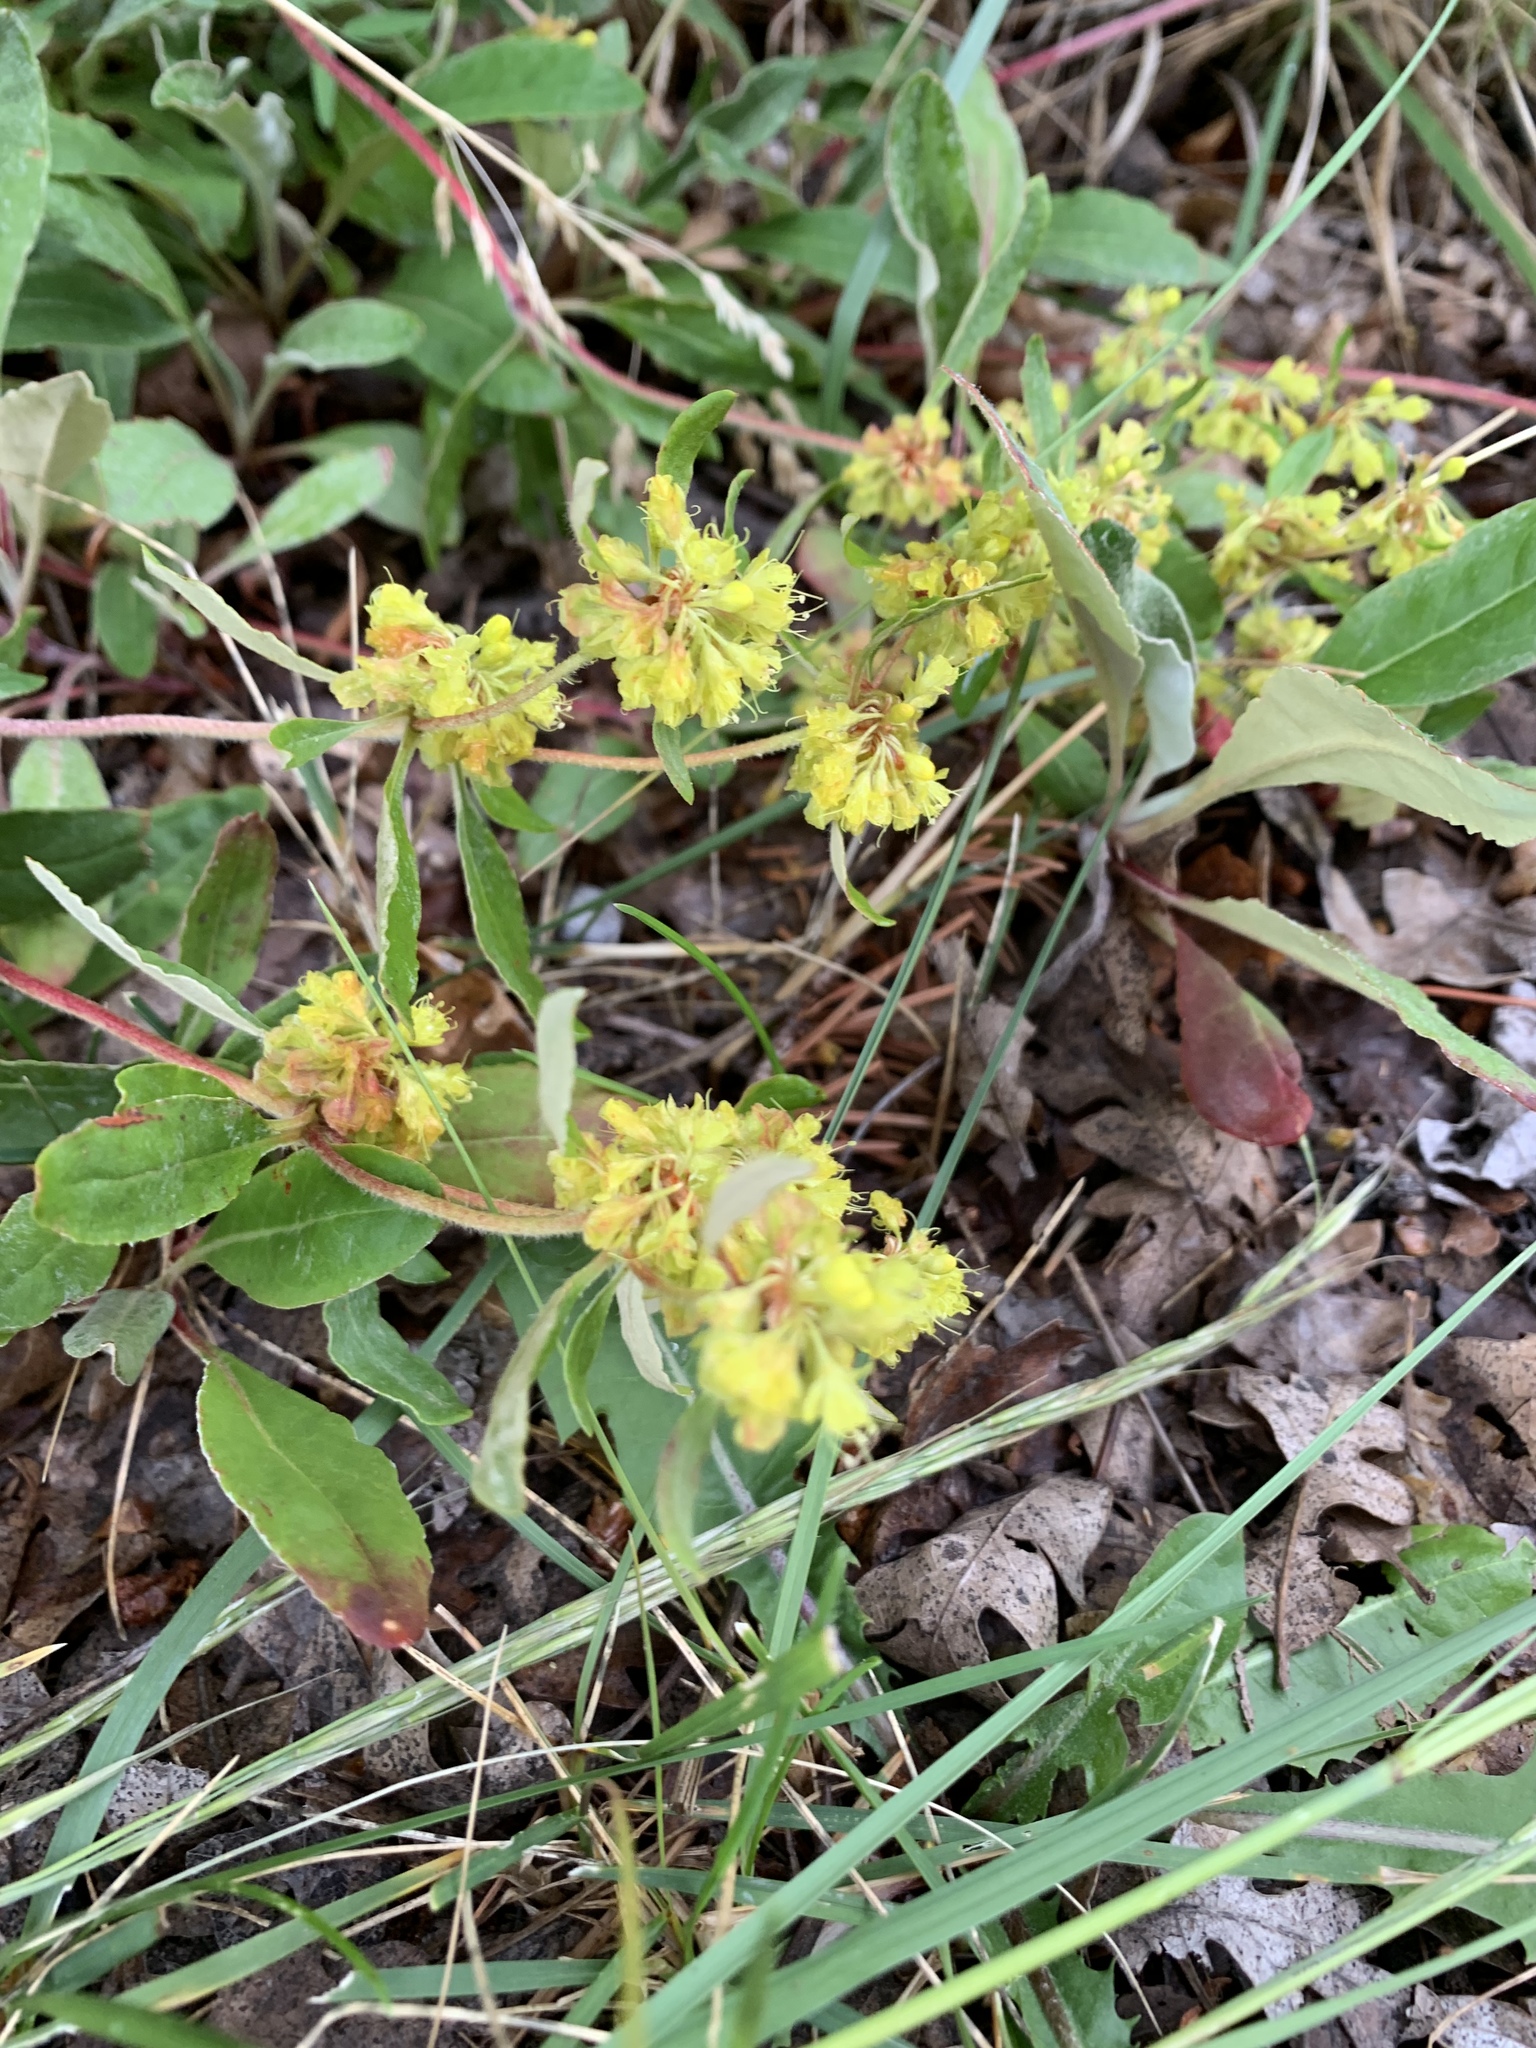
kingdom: Plantae
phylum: Tracheophyta
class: Magnoliopsida
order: Caryophyllales
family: Polygonaceae
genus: Eriogonum
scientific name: Eriogonum wootonii
